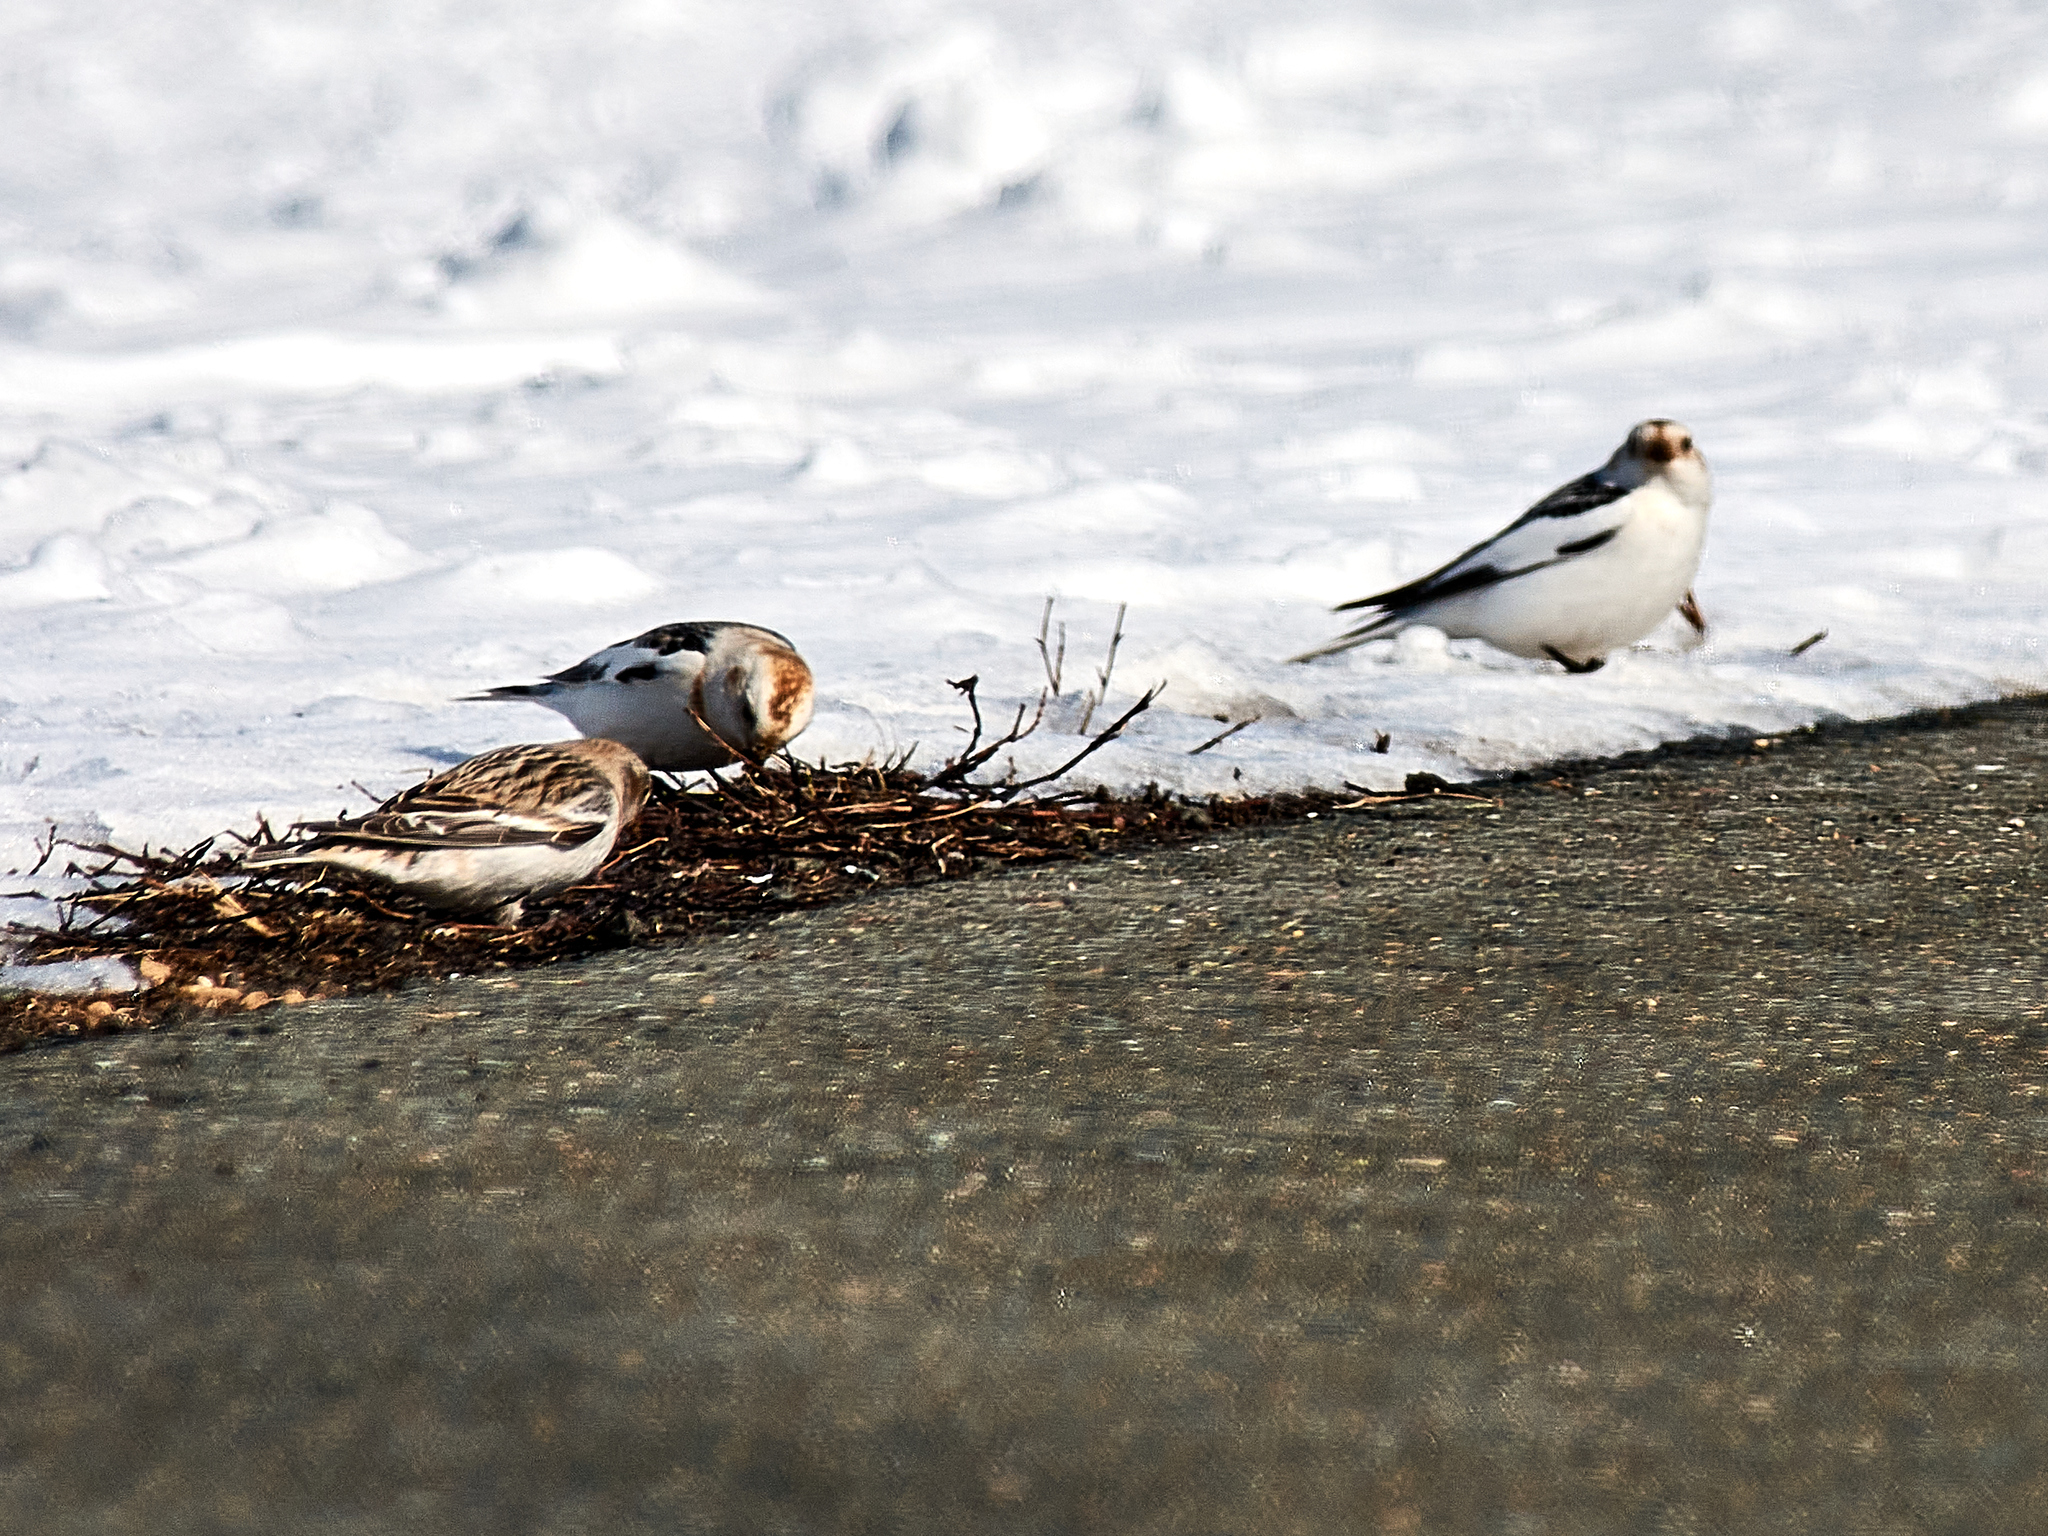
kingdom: Animalia
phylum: Chordata
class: Aves
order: Passeriformes
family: Calcariidae
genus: Plectrophenax
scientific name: Plectrophenax nivalis
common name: Snow bunting
